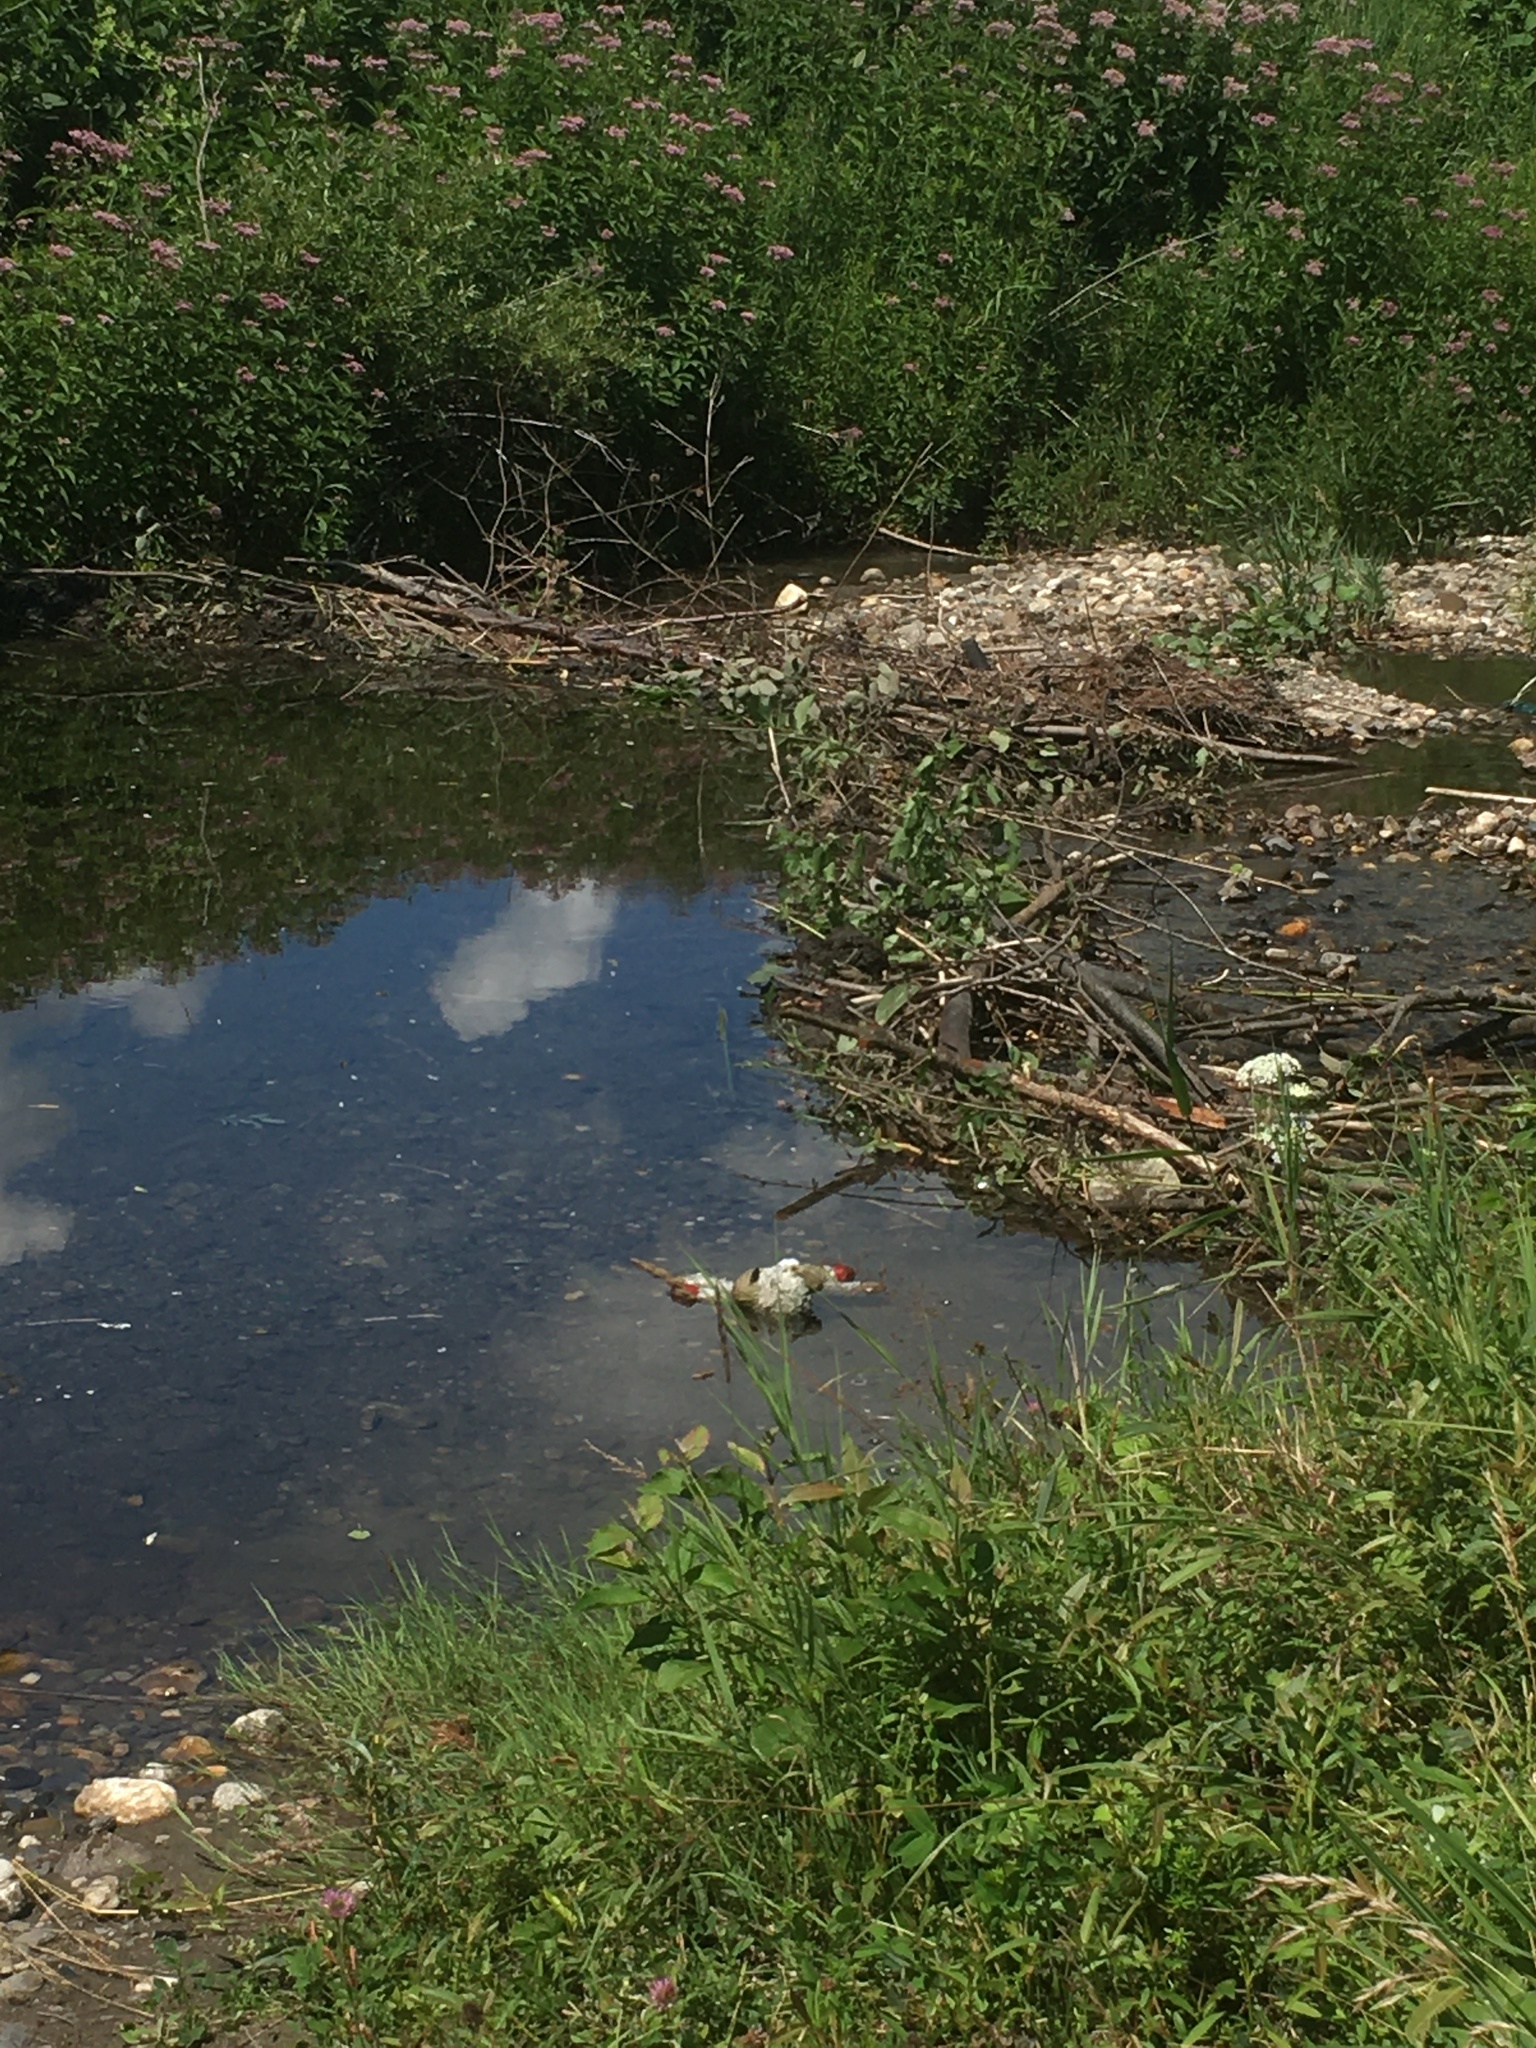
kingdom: Animalia
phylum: Chordata
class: Mammalia
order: Rodentia
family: Castoridae
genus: Castor
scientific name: Castor canadensis
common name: American beaver
